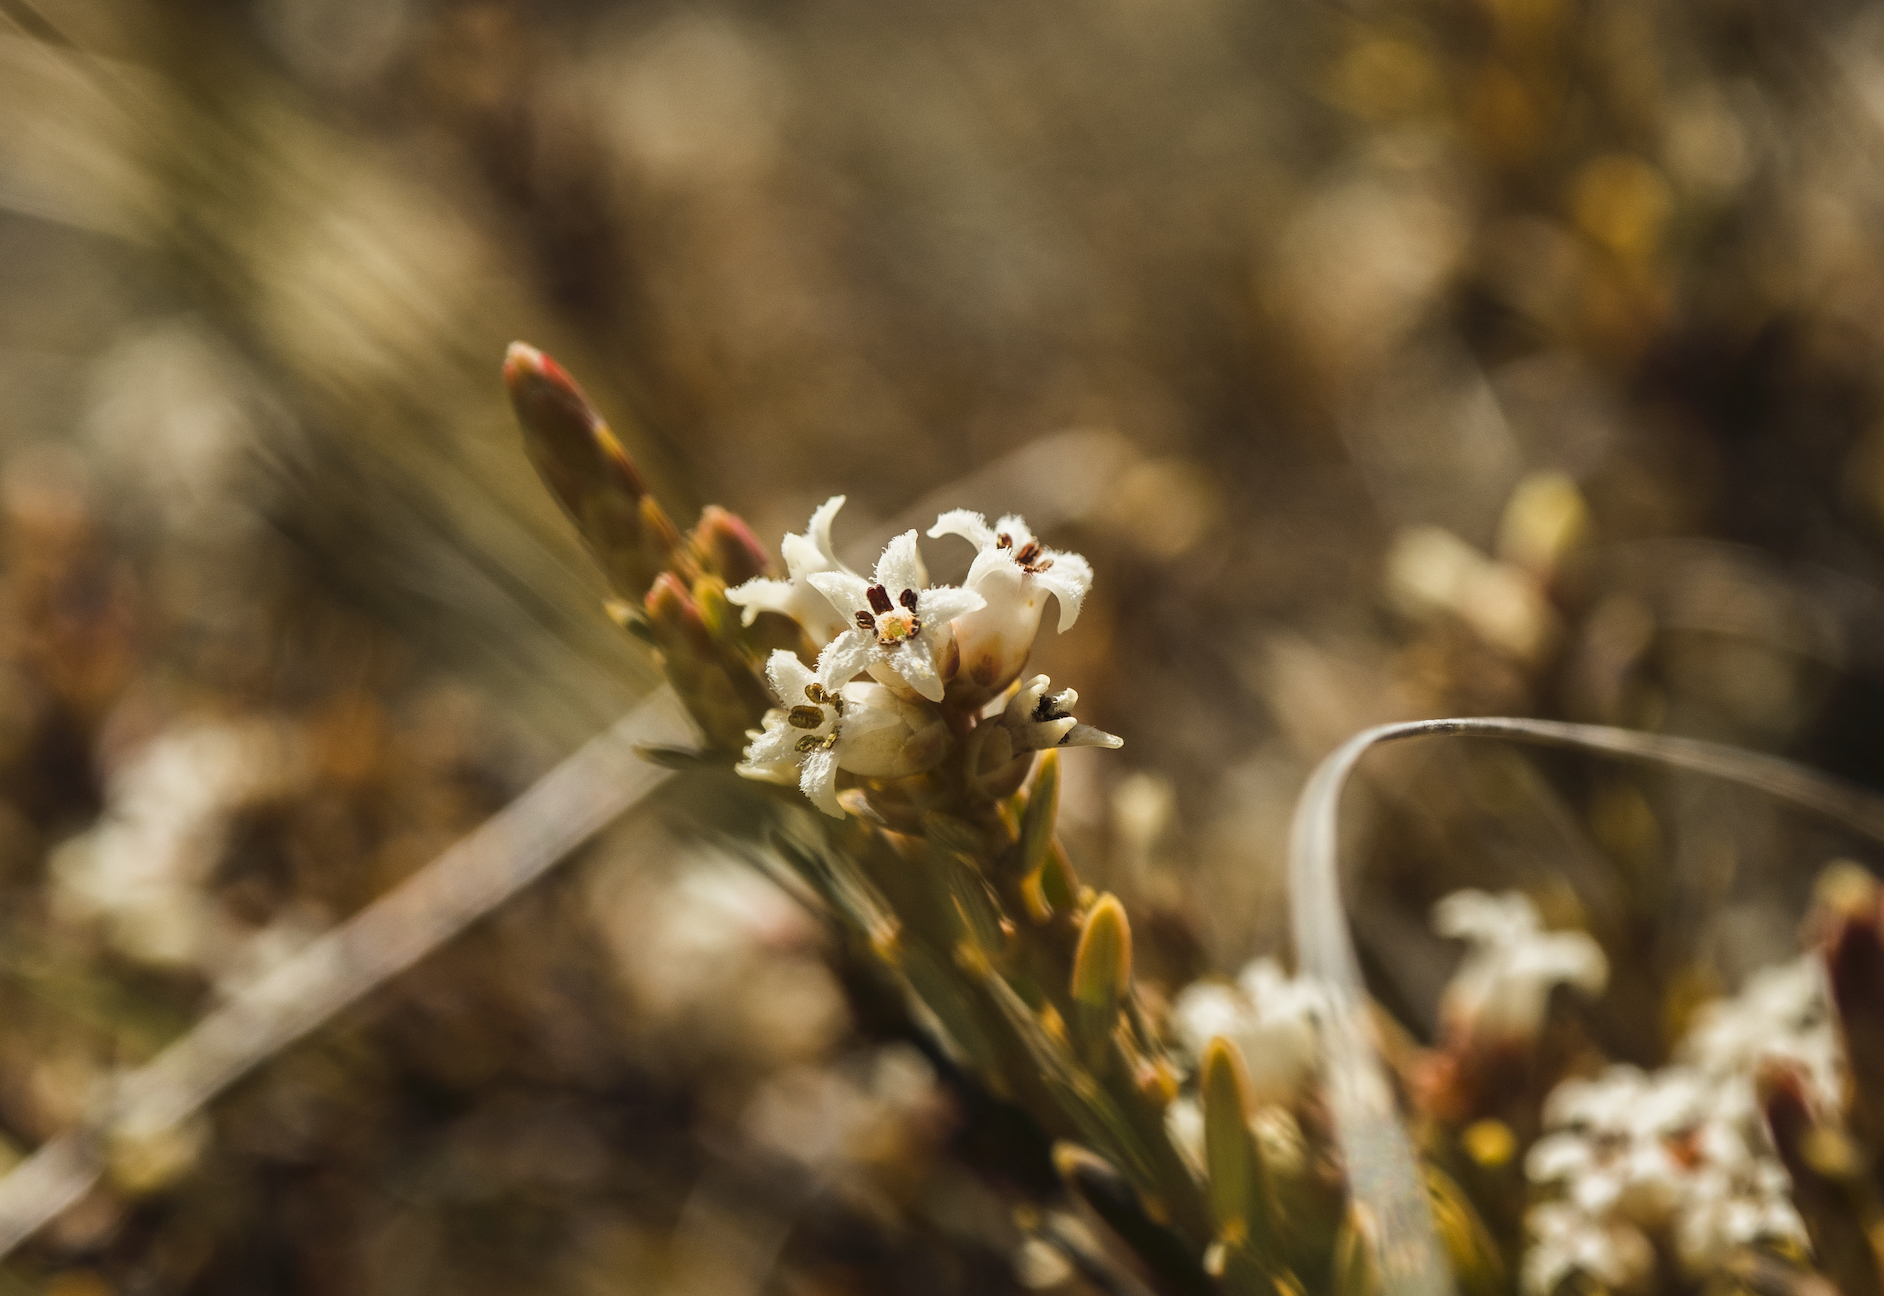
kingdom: Plantae
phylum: Tracheophyta
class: Magnoliopsida
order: Ericales
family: Ericaceae
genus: Acrothamnus
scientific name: Acrothamnus colensoi
